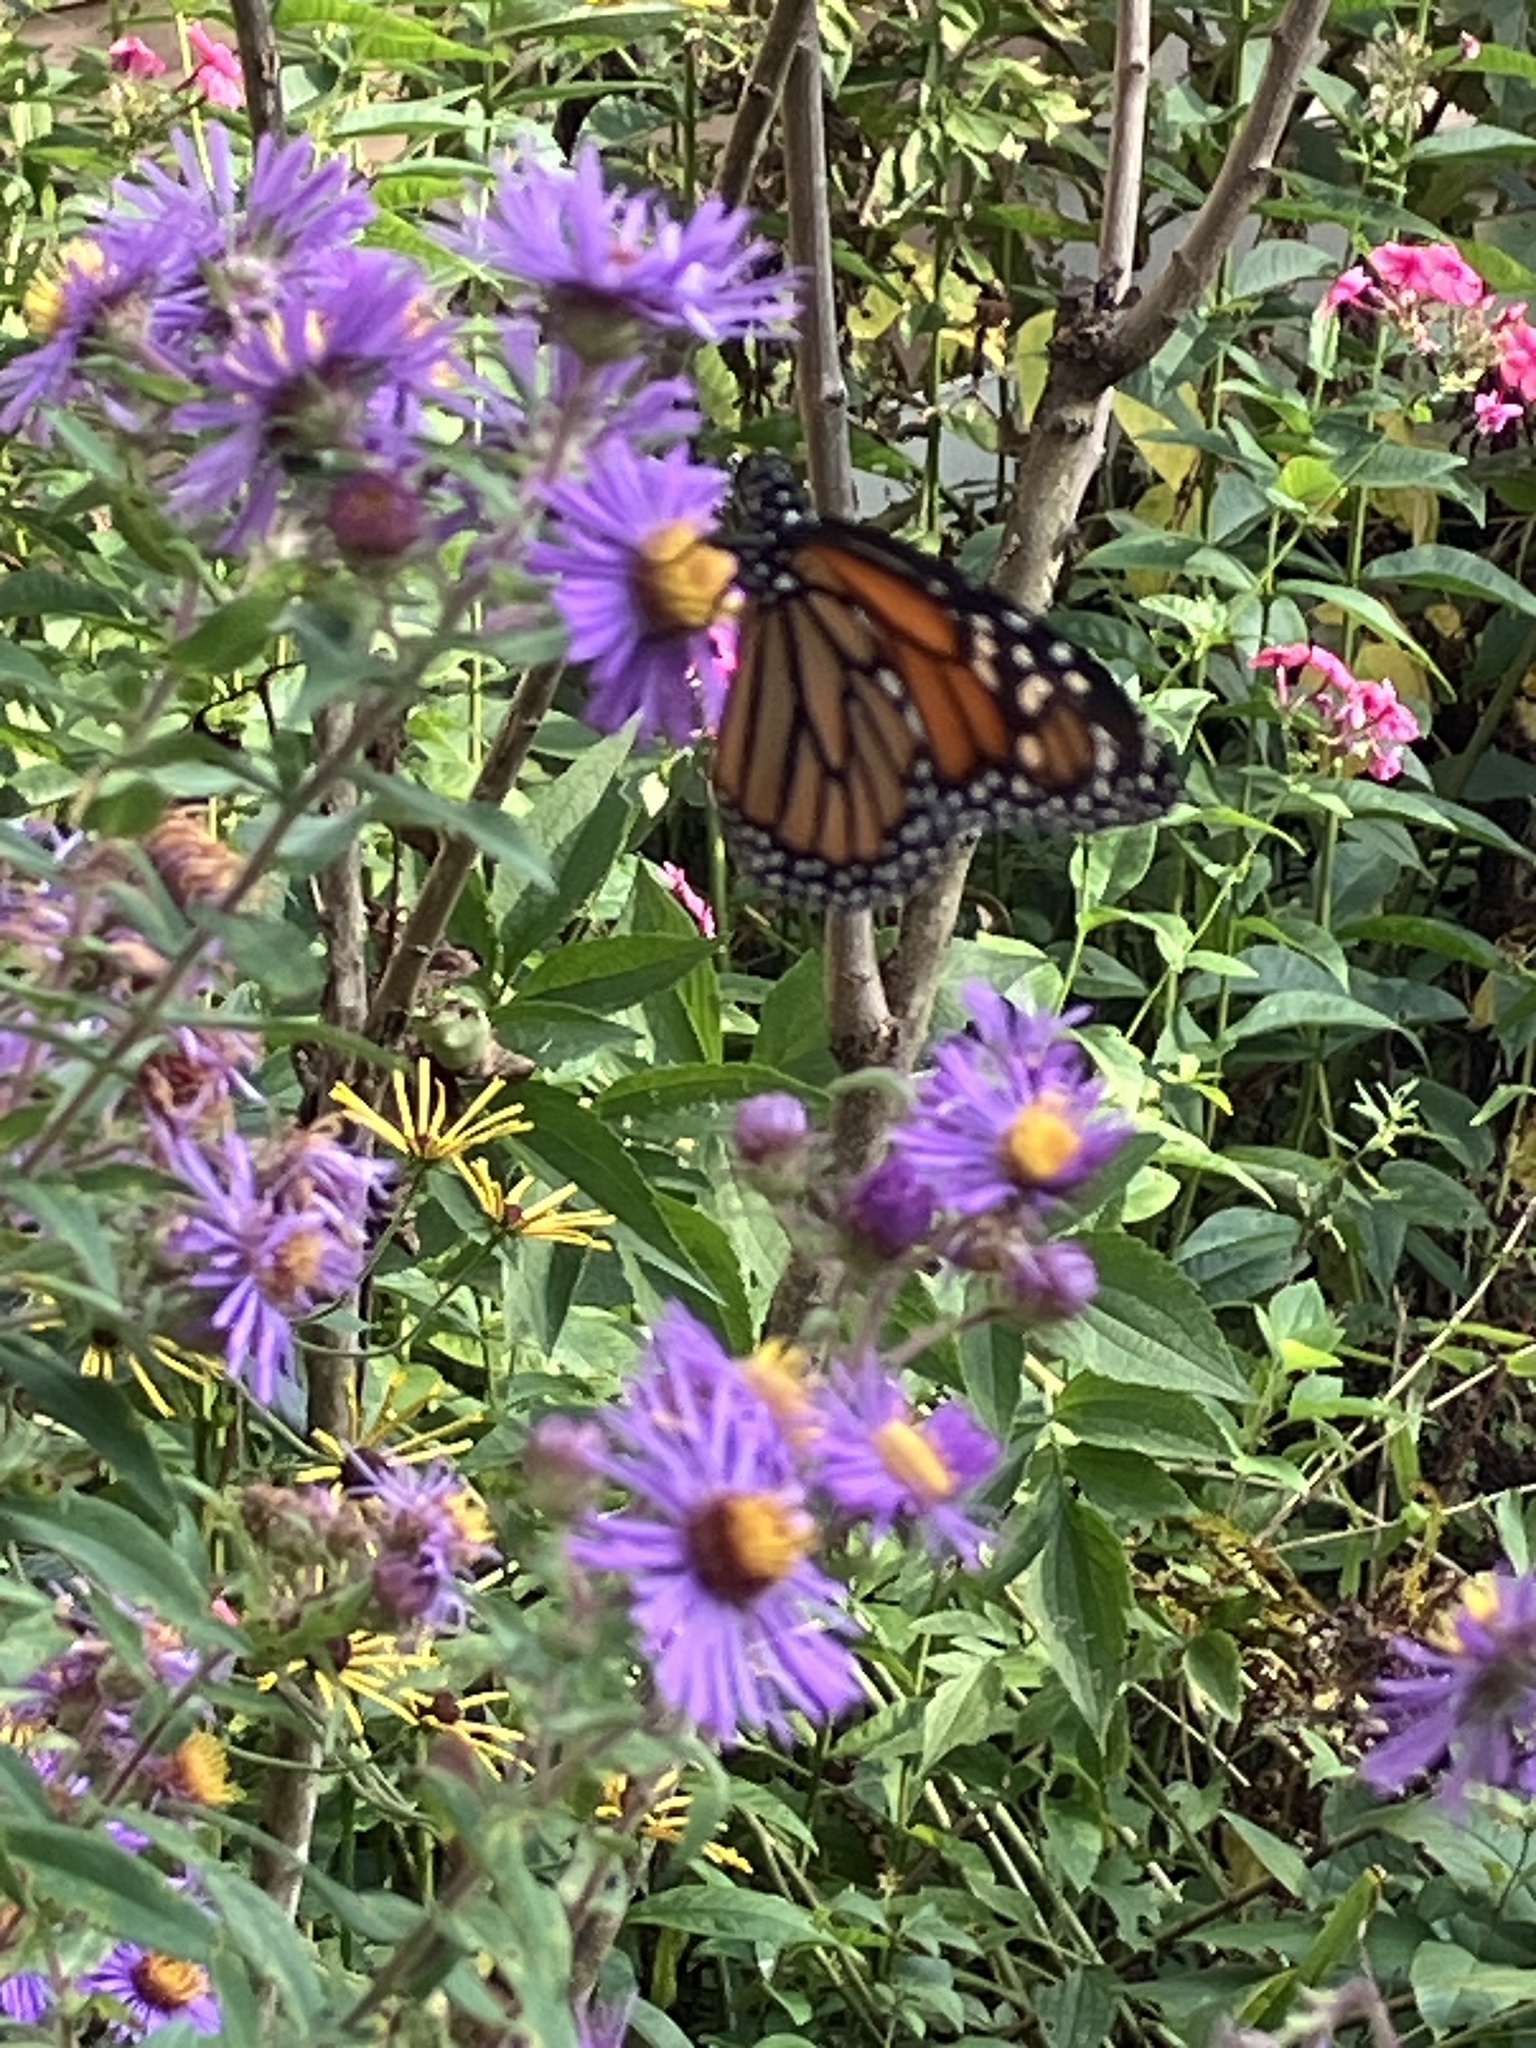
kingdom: Animalia
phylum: Arthropoda
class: Insecta
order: Lepidoptera
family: Nymphalidae
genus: Danaus
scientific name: Danaus plexippus
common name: Monarch
